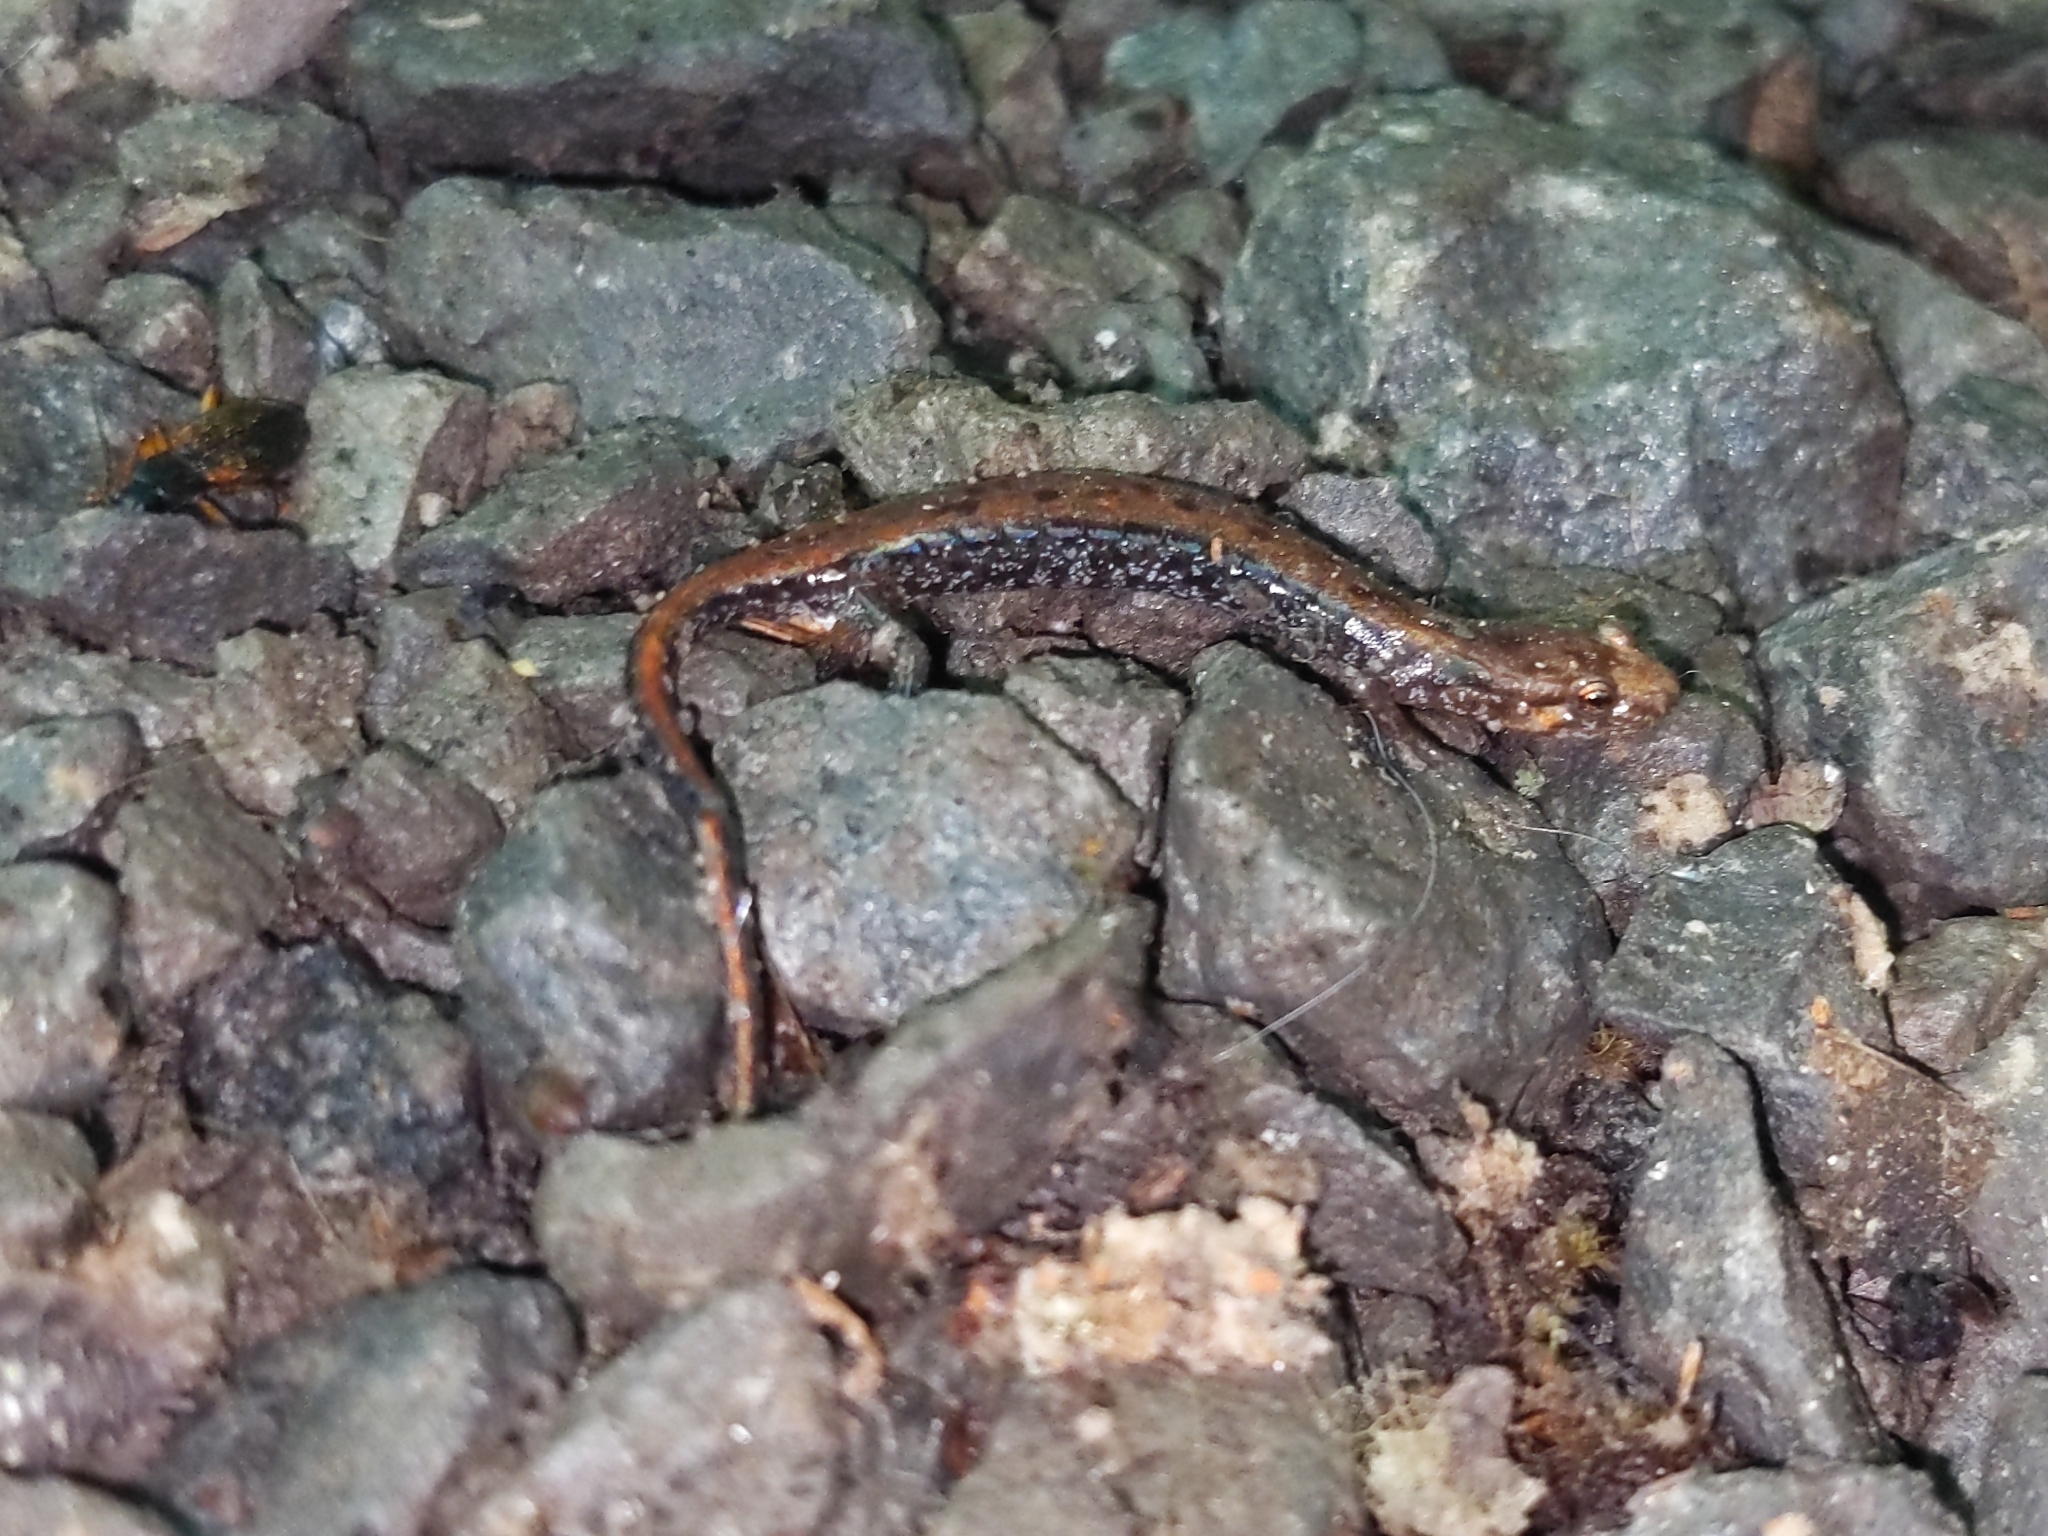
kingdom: Animalia
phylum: Chordata
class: Amphibia
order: Caudata
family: Plethodontidae
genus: Desmognathus
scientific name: Desmognathus ochrophaeus
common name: Allegheny mountain dusky salamander
